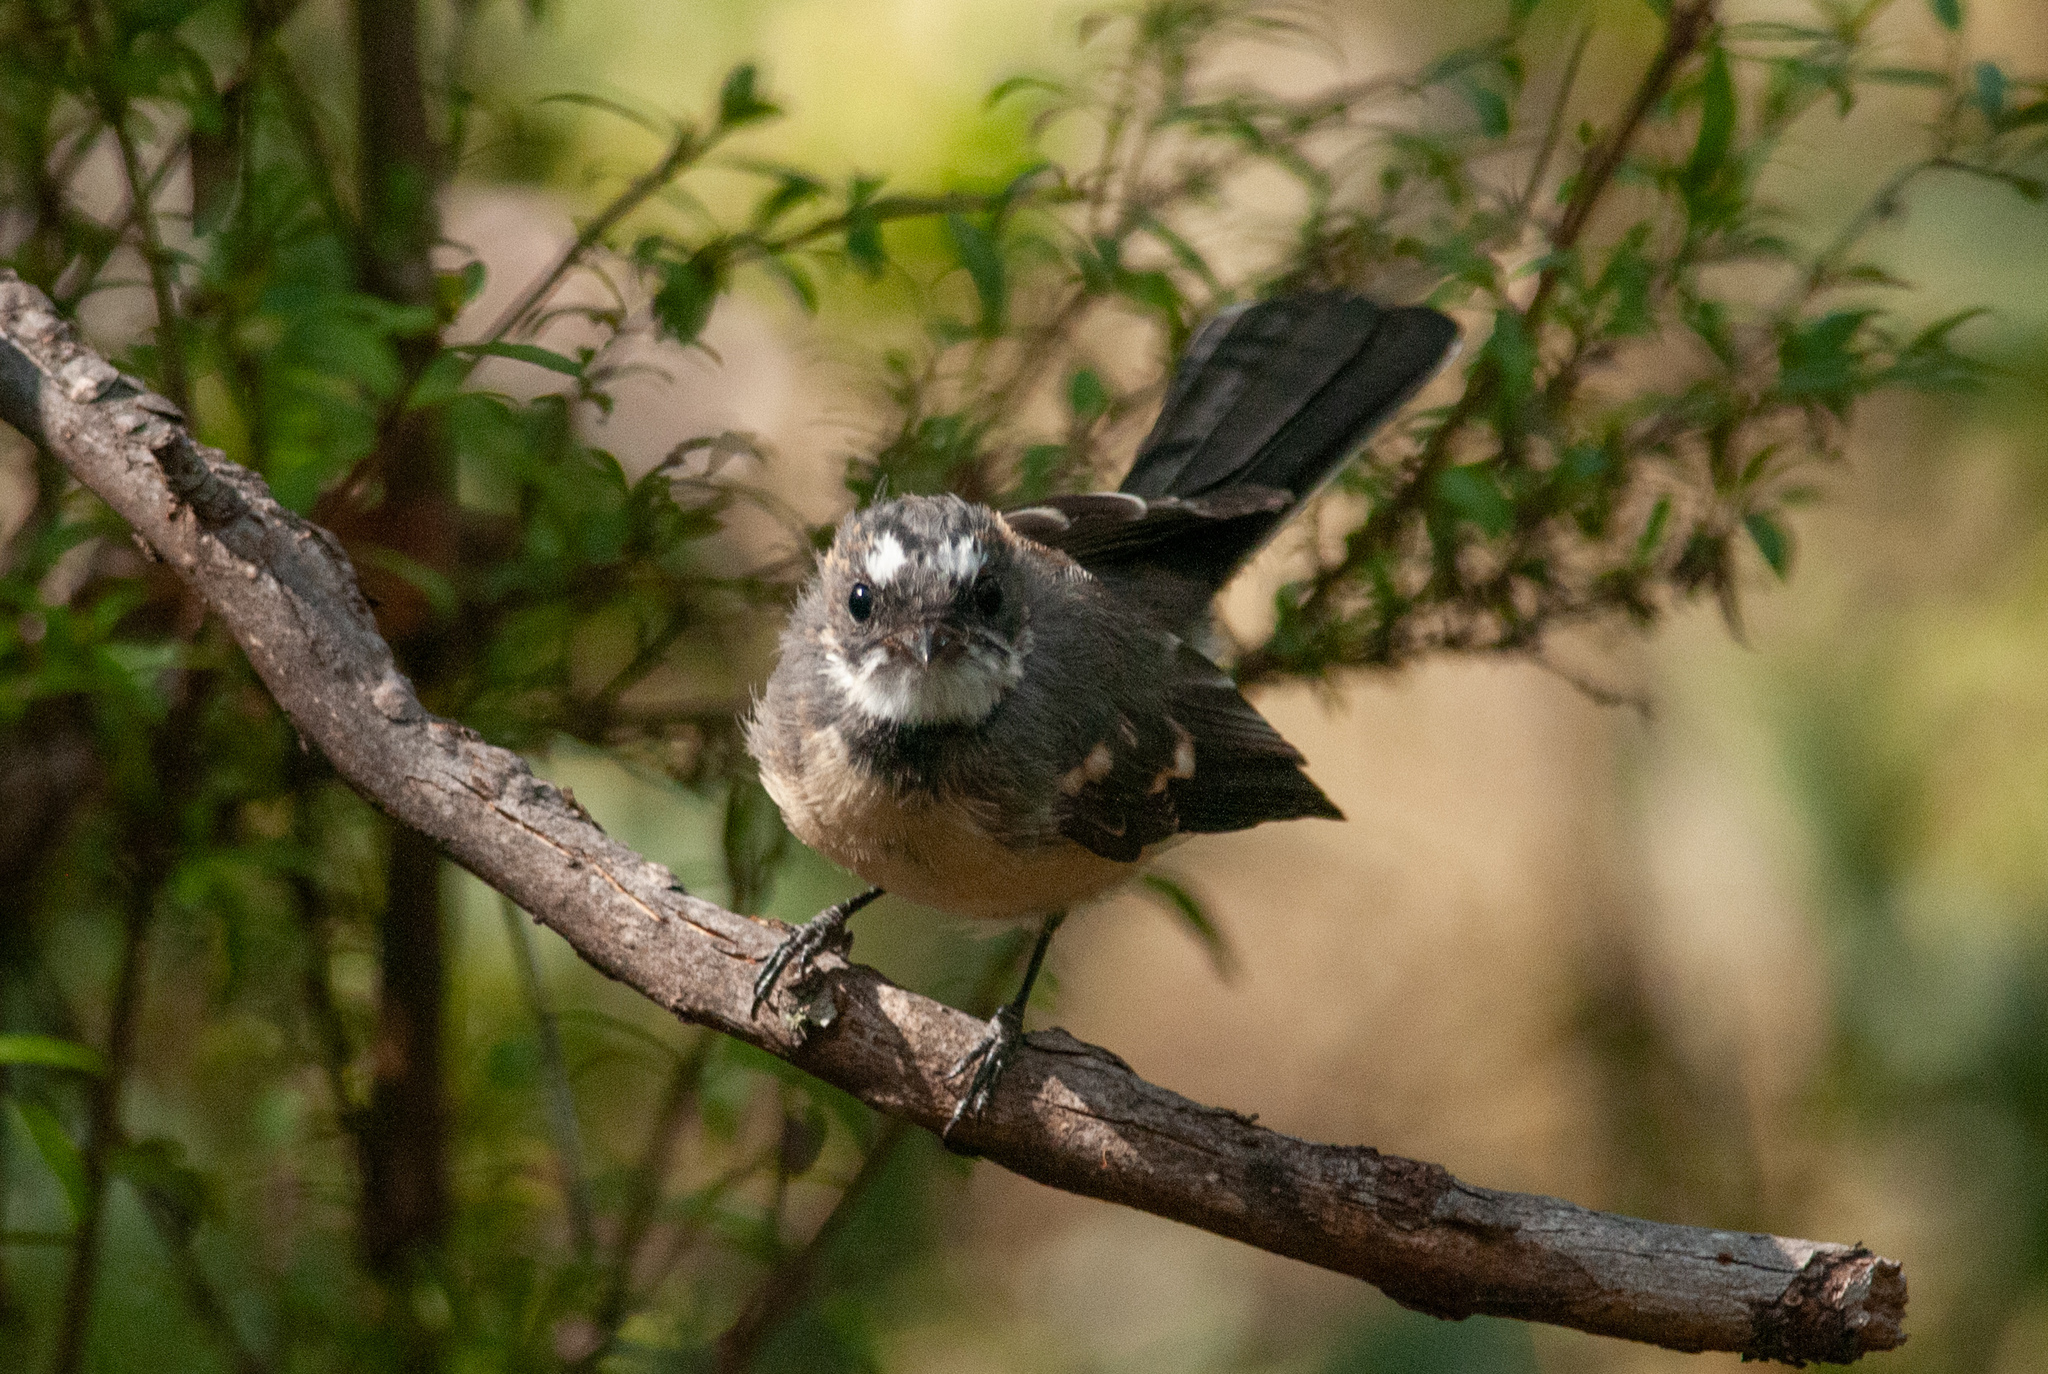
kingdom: Animalia
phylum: Chordata
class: Aves
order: Passeriformes
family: Rhipiduridae
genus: Rhipidura
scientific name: Rhipidura albiscapa
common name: Grey fantail
